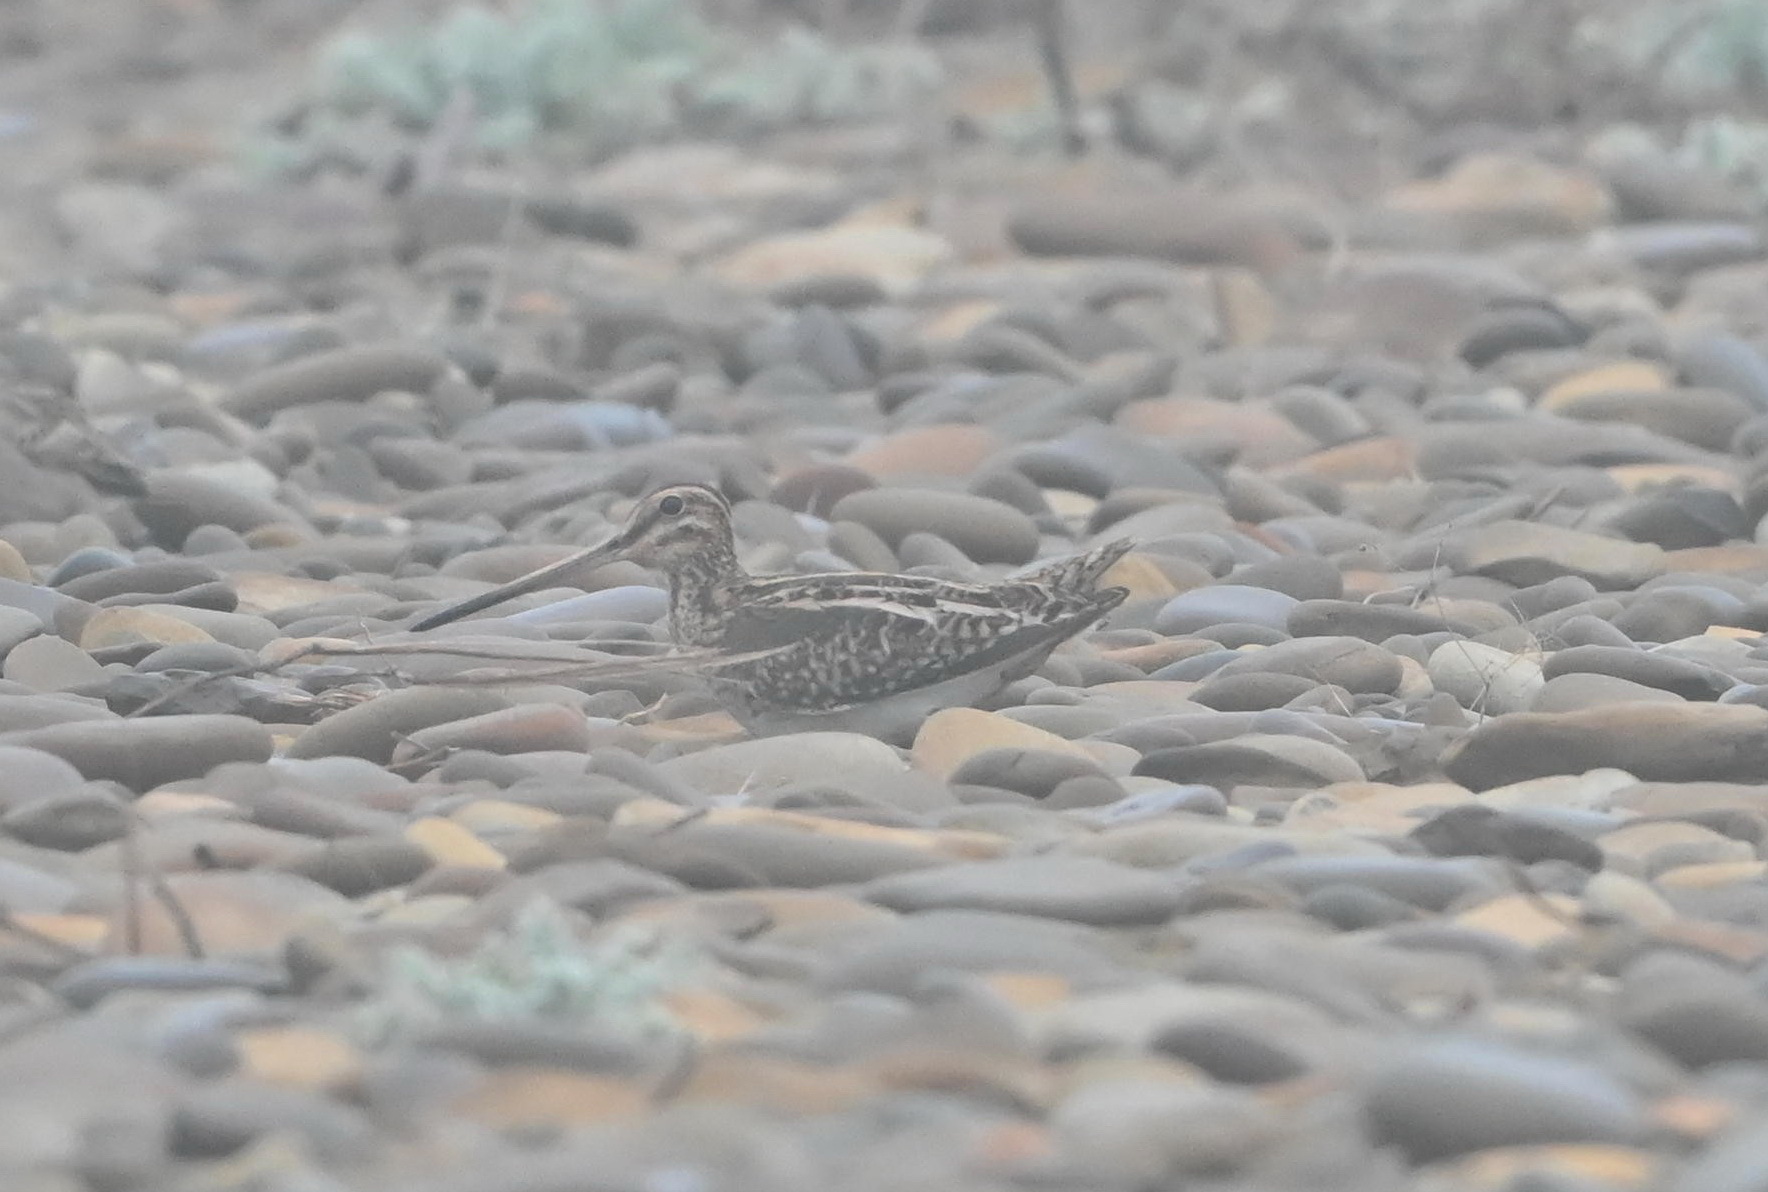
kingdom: Animalia
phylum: Chordata
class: Aves
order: Charadriiformes
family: Scolopacidae
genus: Gallinago
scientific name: Gallinago gallinago
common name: Common snipe
